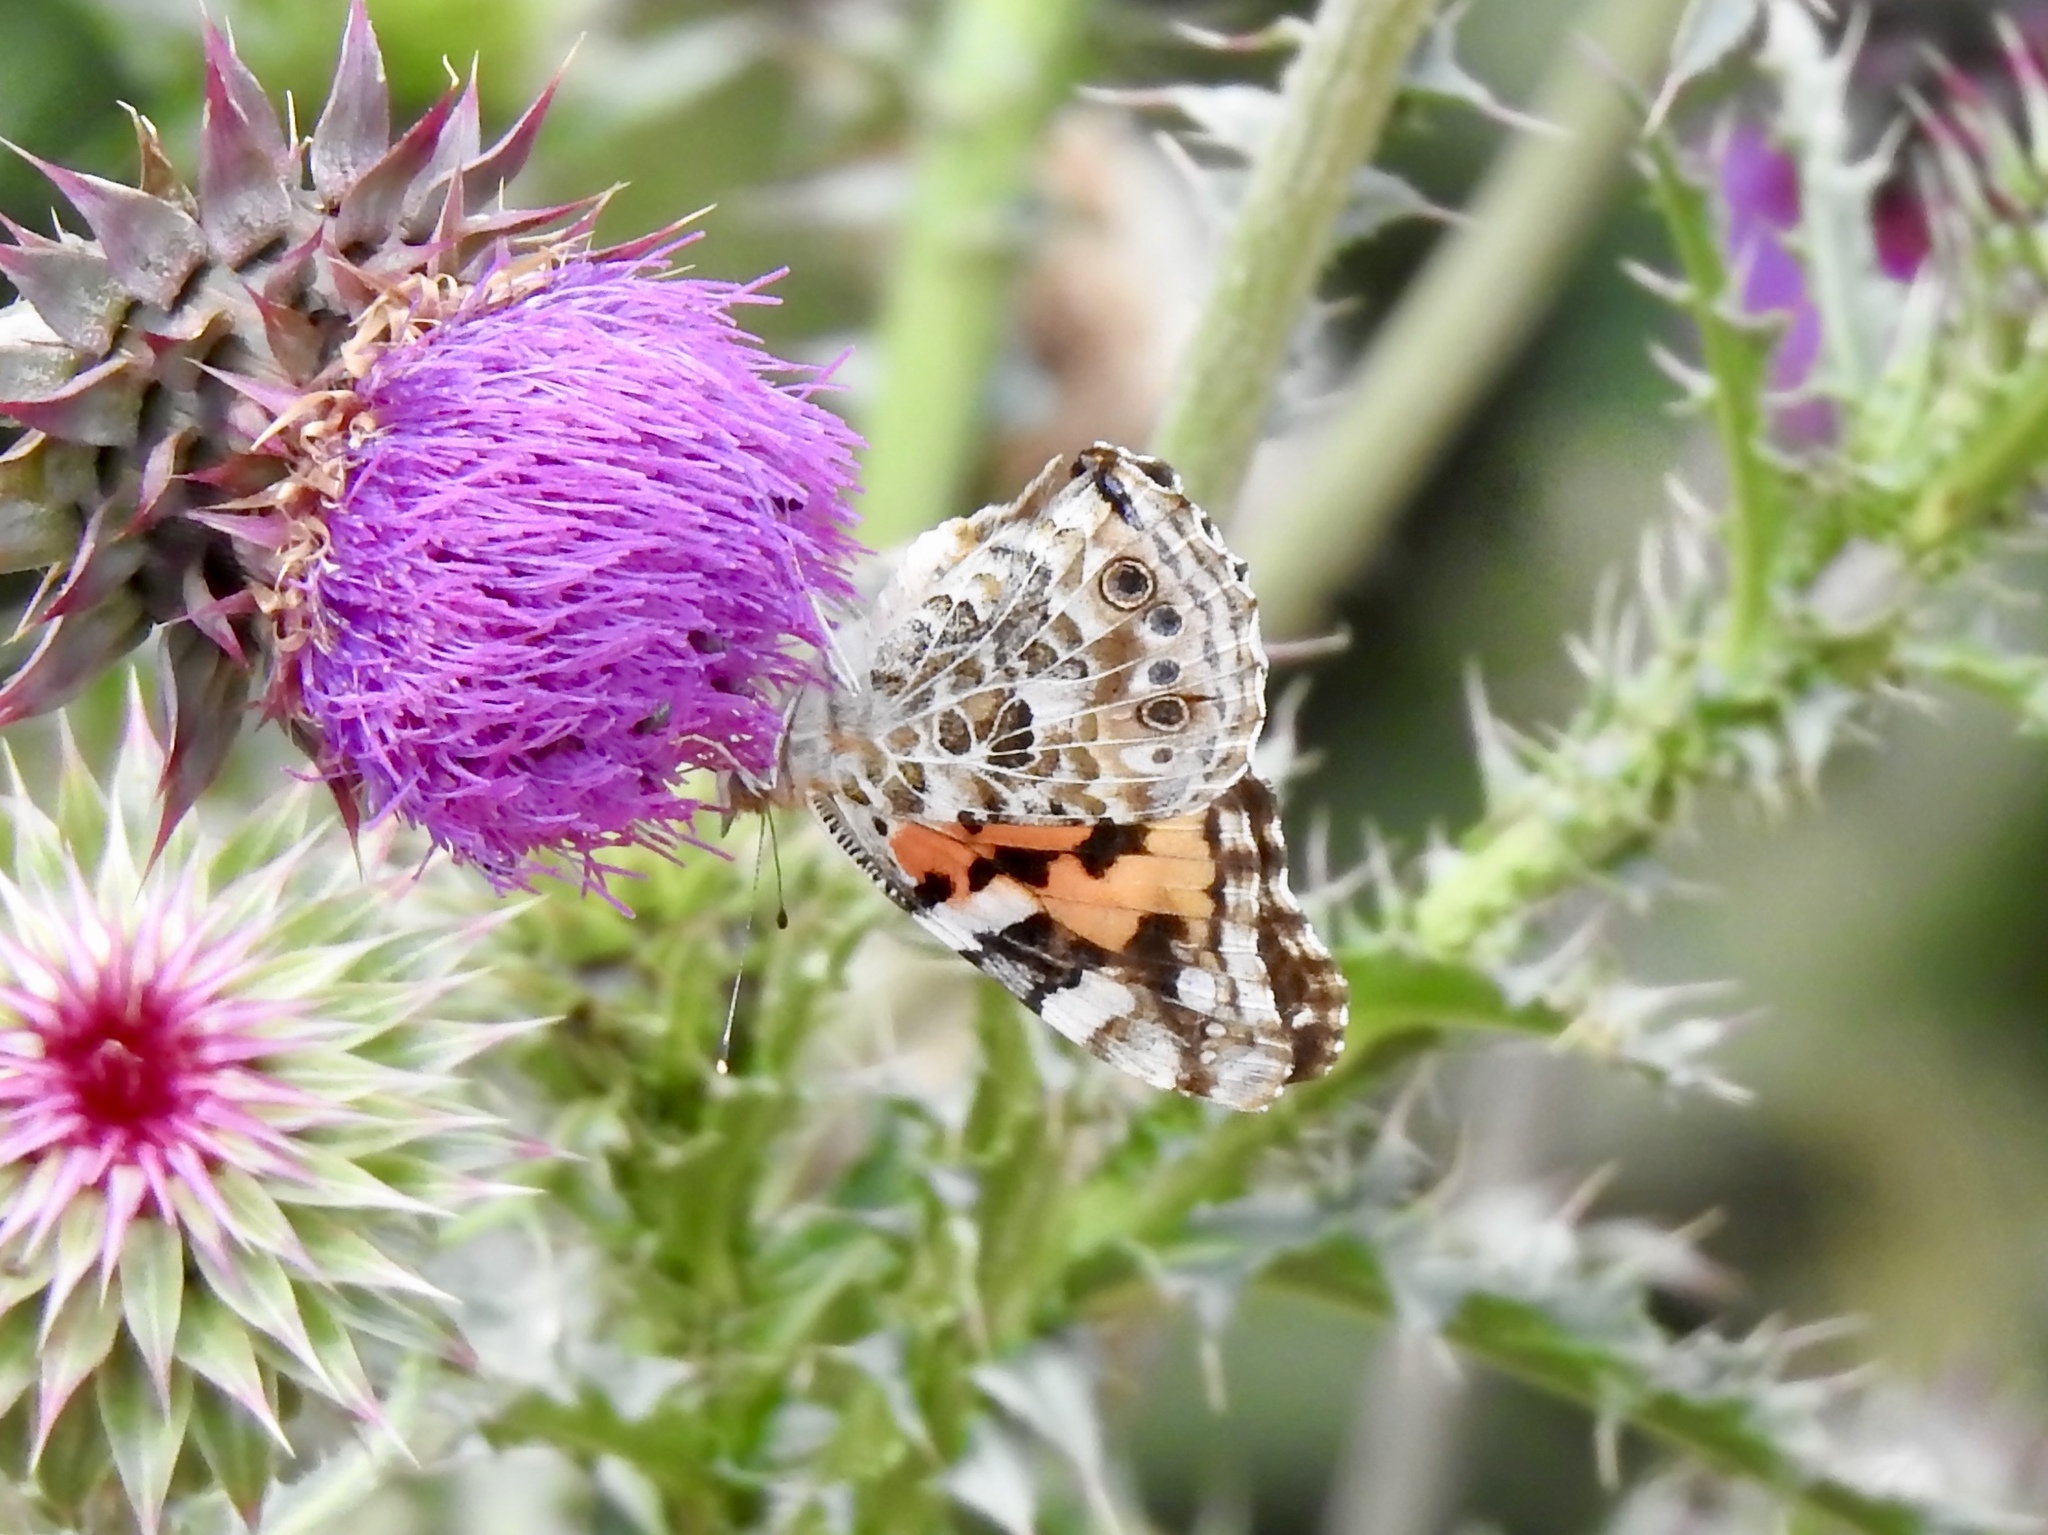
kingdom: Animalia
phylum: Arthropoda
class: Insecta
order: Lepidoptera
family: Nymphalidae
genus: Vanessa
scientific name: Vanessa cardui
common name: Painted lady
